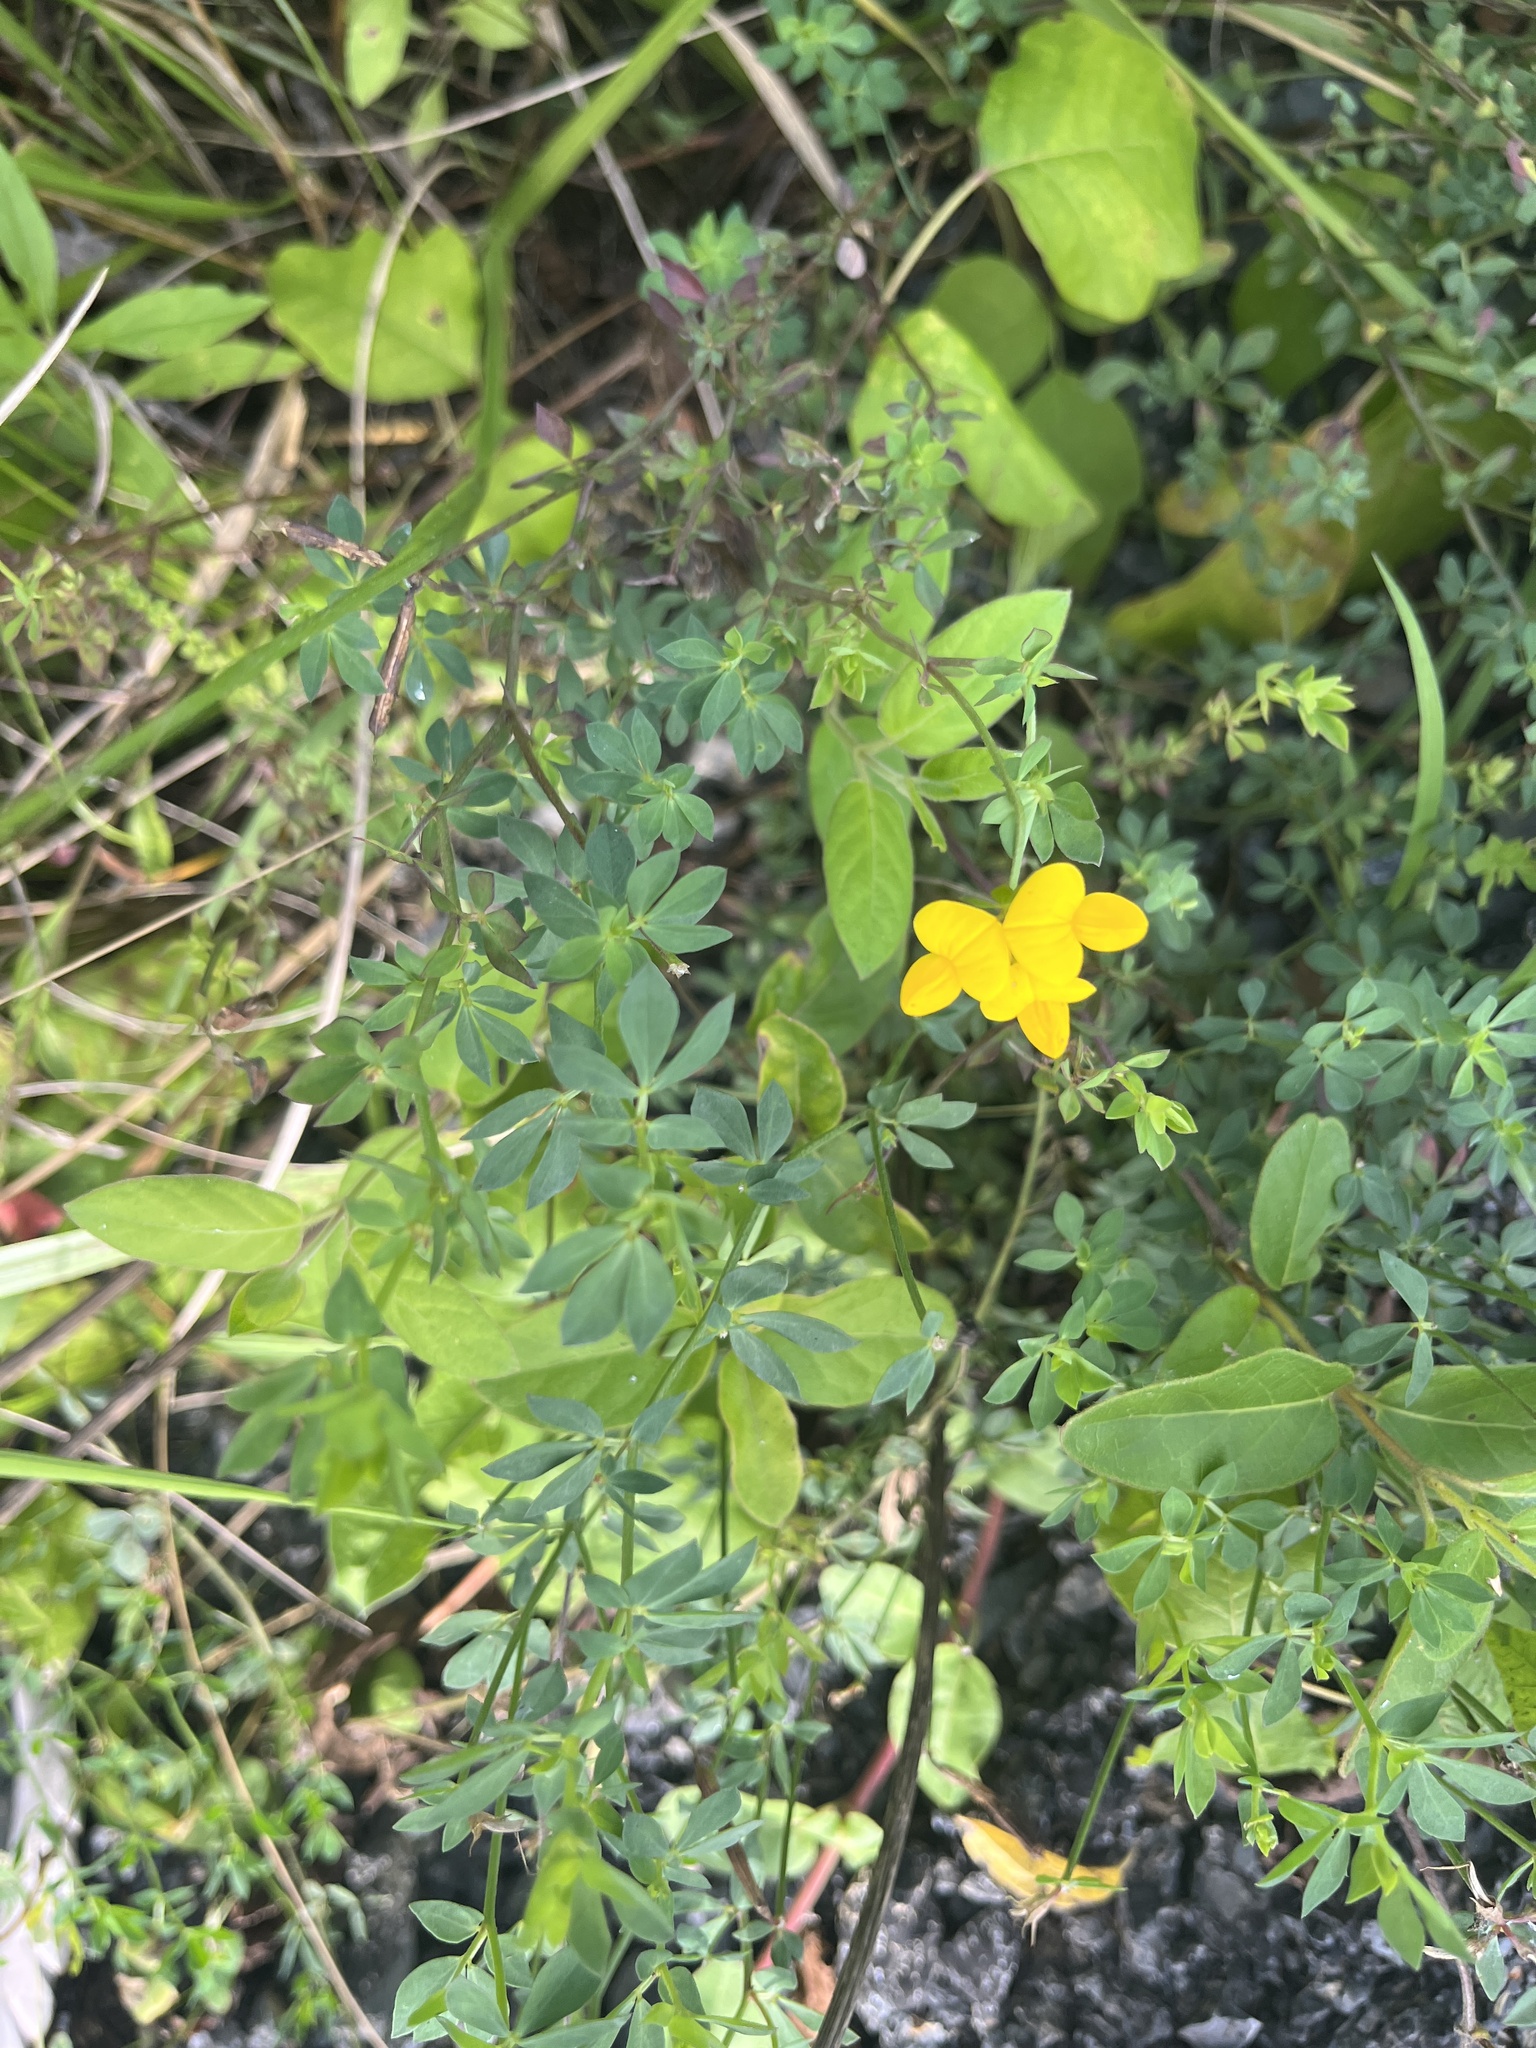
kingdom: Plantae
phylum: Tracheophyta
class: Magnoliopsida
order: Fabales
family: Fabaceae
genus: Lotus
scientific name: Lotus corniculatus
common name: Common bird's-foot-trefoil
